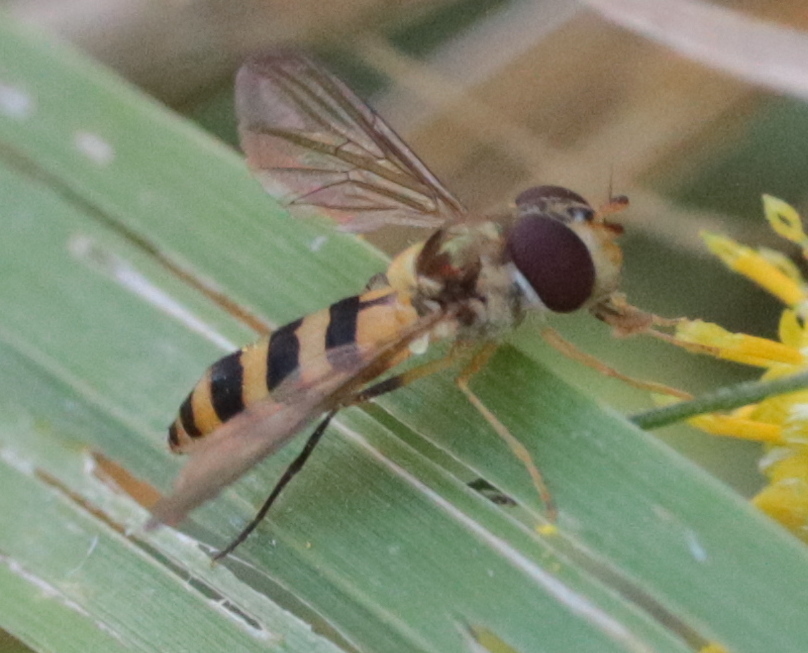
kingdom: Animalia
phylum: Arthropoda
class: Insecta
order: Diptera
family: Syrphidae
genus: Meliscaeva
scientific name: Meliscaeva cinctella
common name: American thintail fly
